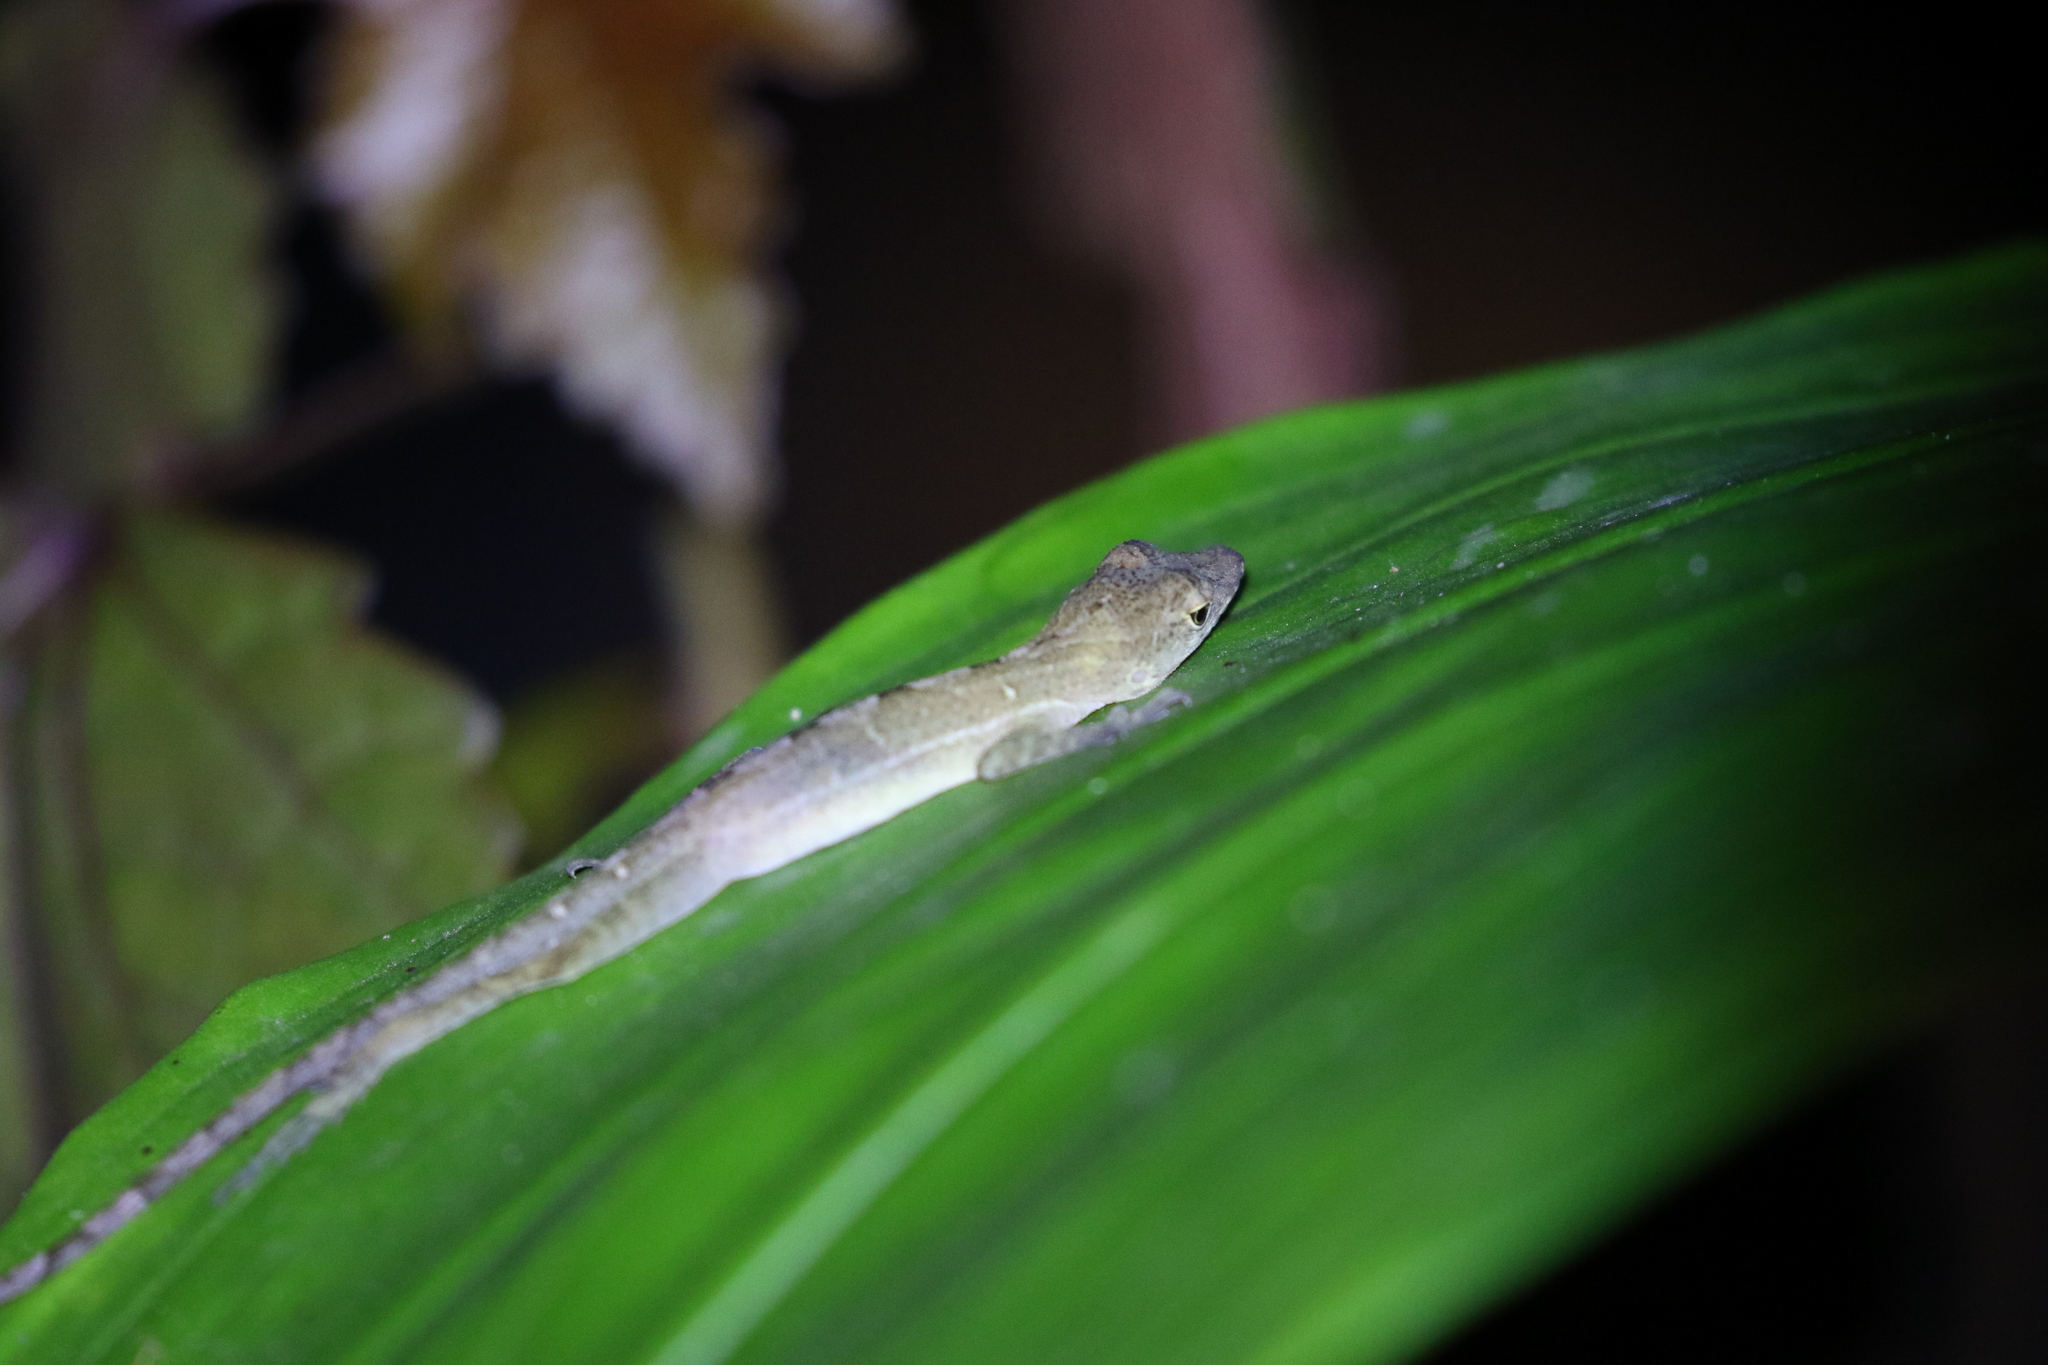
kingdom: Animalia
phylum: Chordata
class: Squamata
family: Dactyloidae
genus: Anolis
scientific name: Anolis limifrons
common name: Border anole
